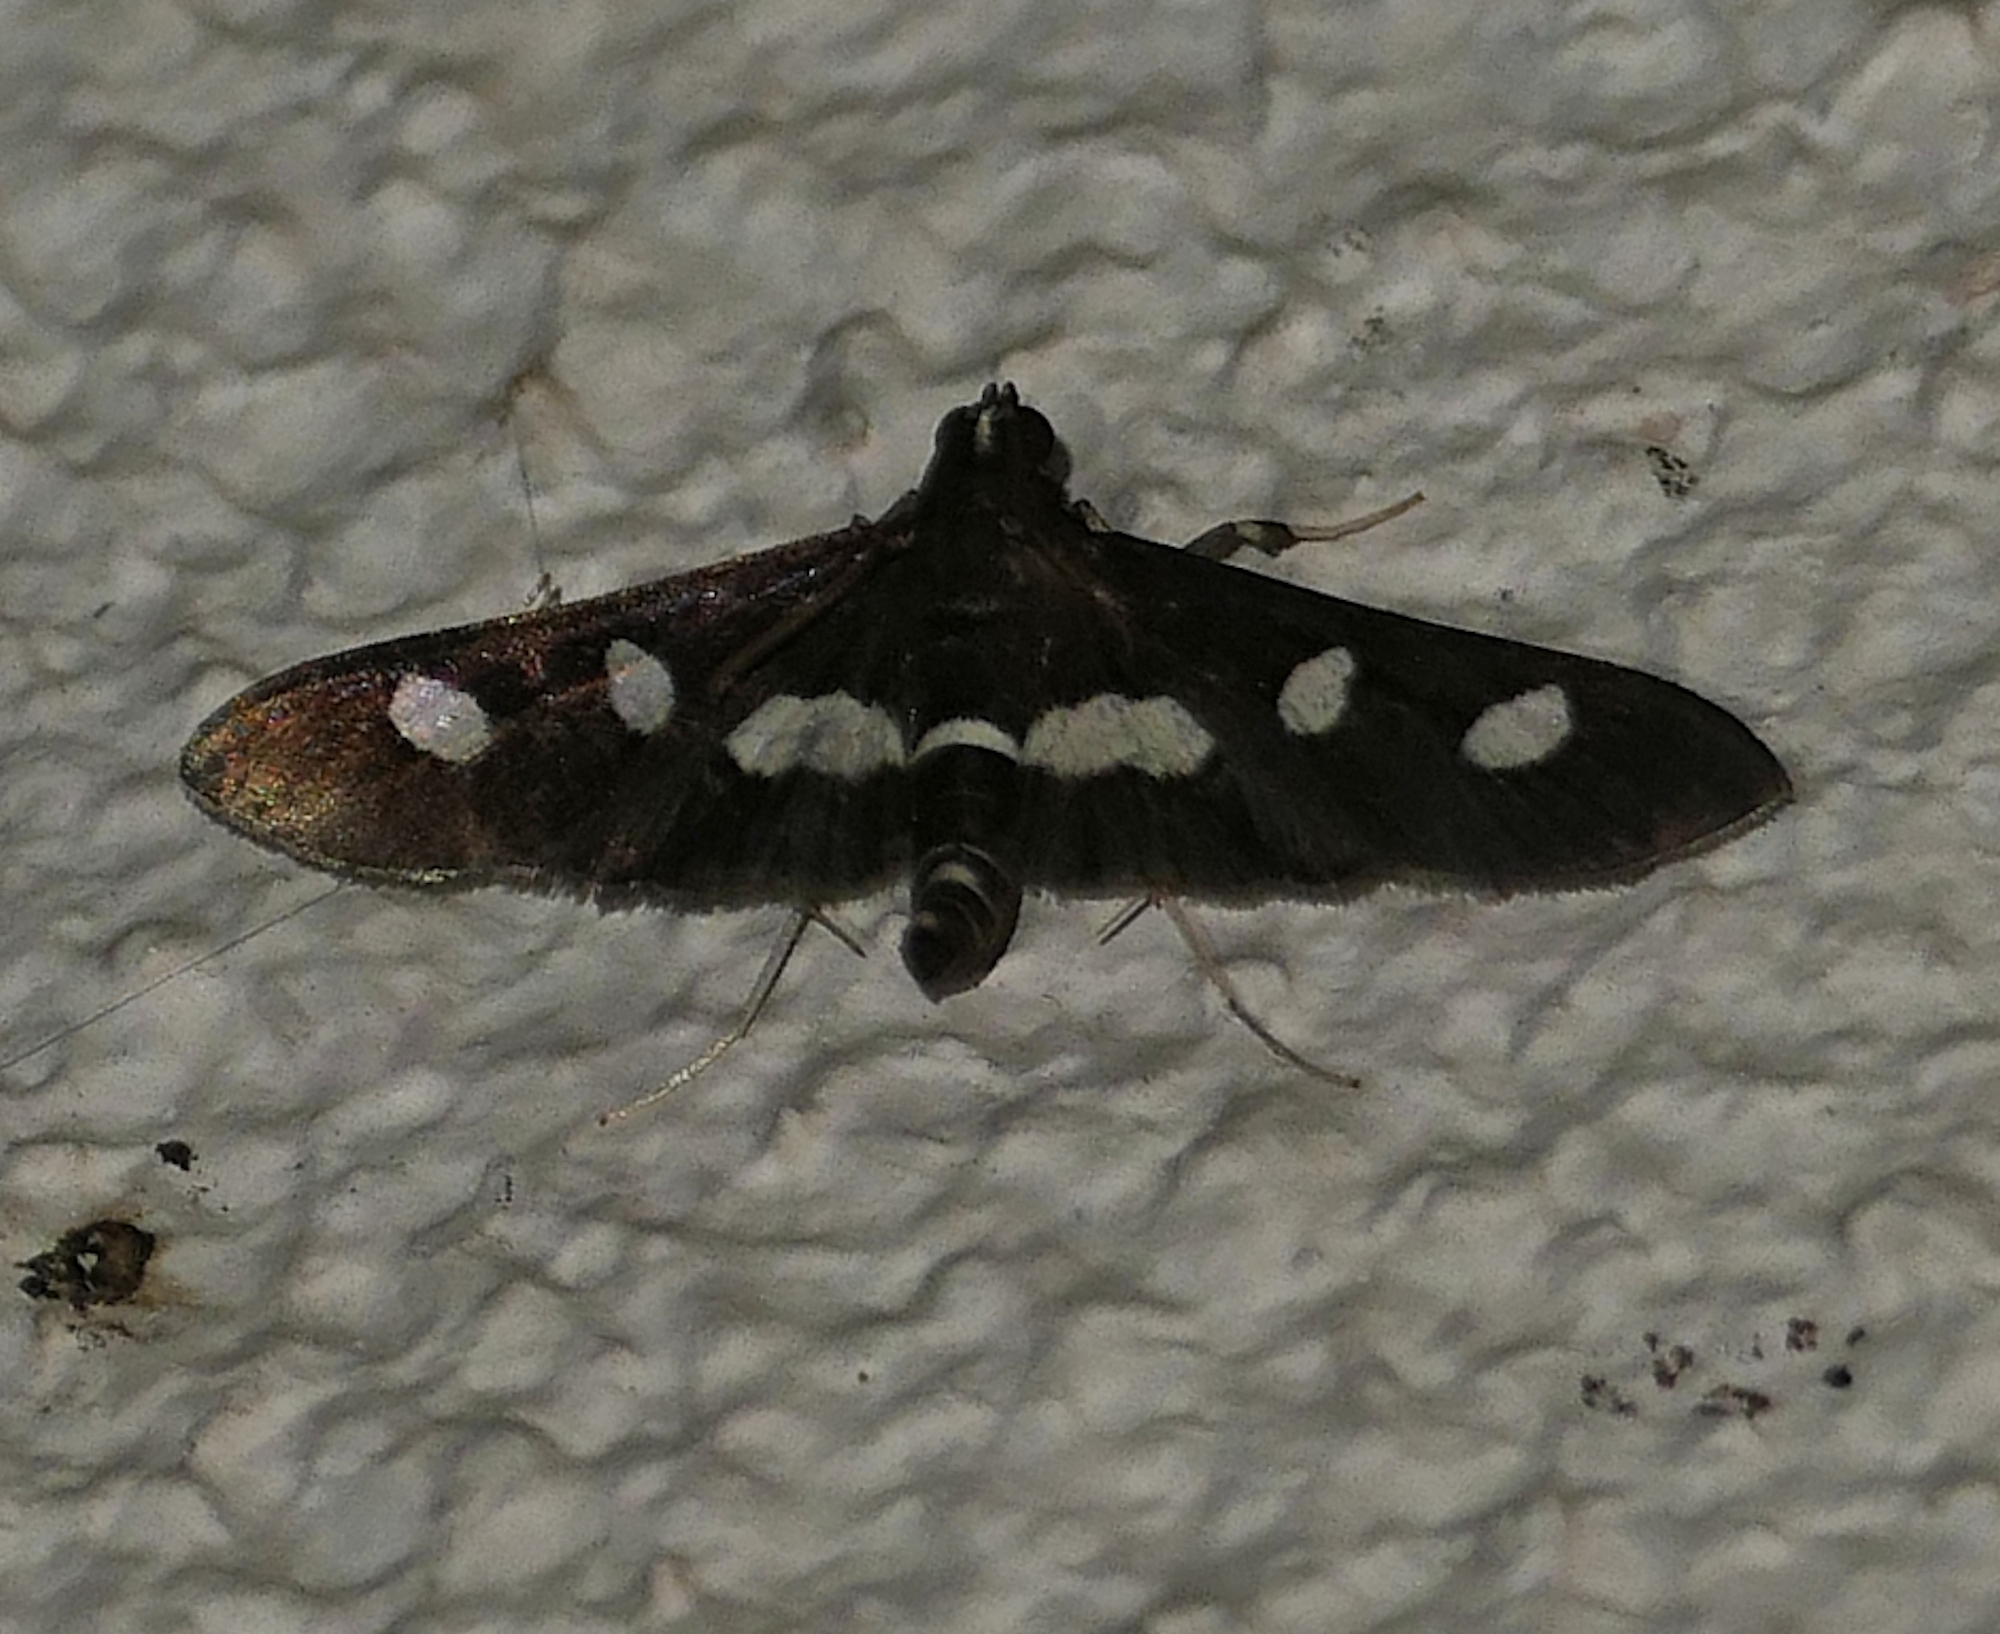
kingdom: Animalia
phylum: Arthropoda
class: Insecta
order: Lepidoptera
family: Crambidae
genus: Desmia
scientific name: Desmia
